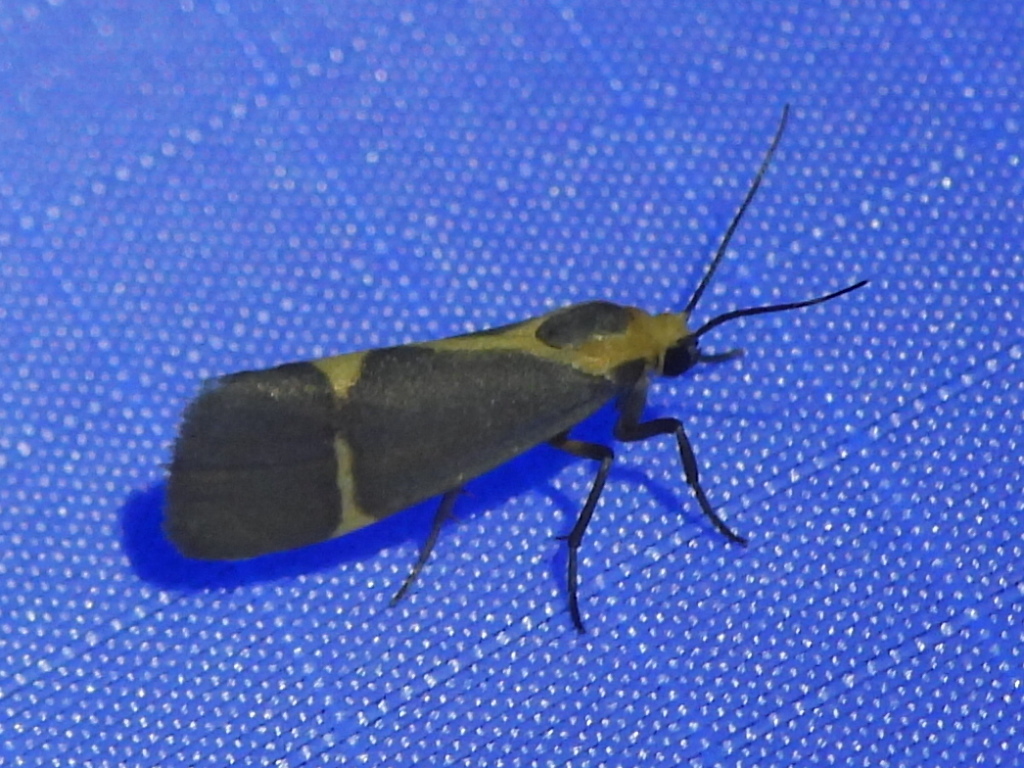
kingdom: Animalia
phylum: Arthropoda
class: Insecta
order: Lepidoptera
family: Erebidae
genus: Cisthene
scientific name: Cisthene tenuifascia
